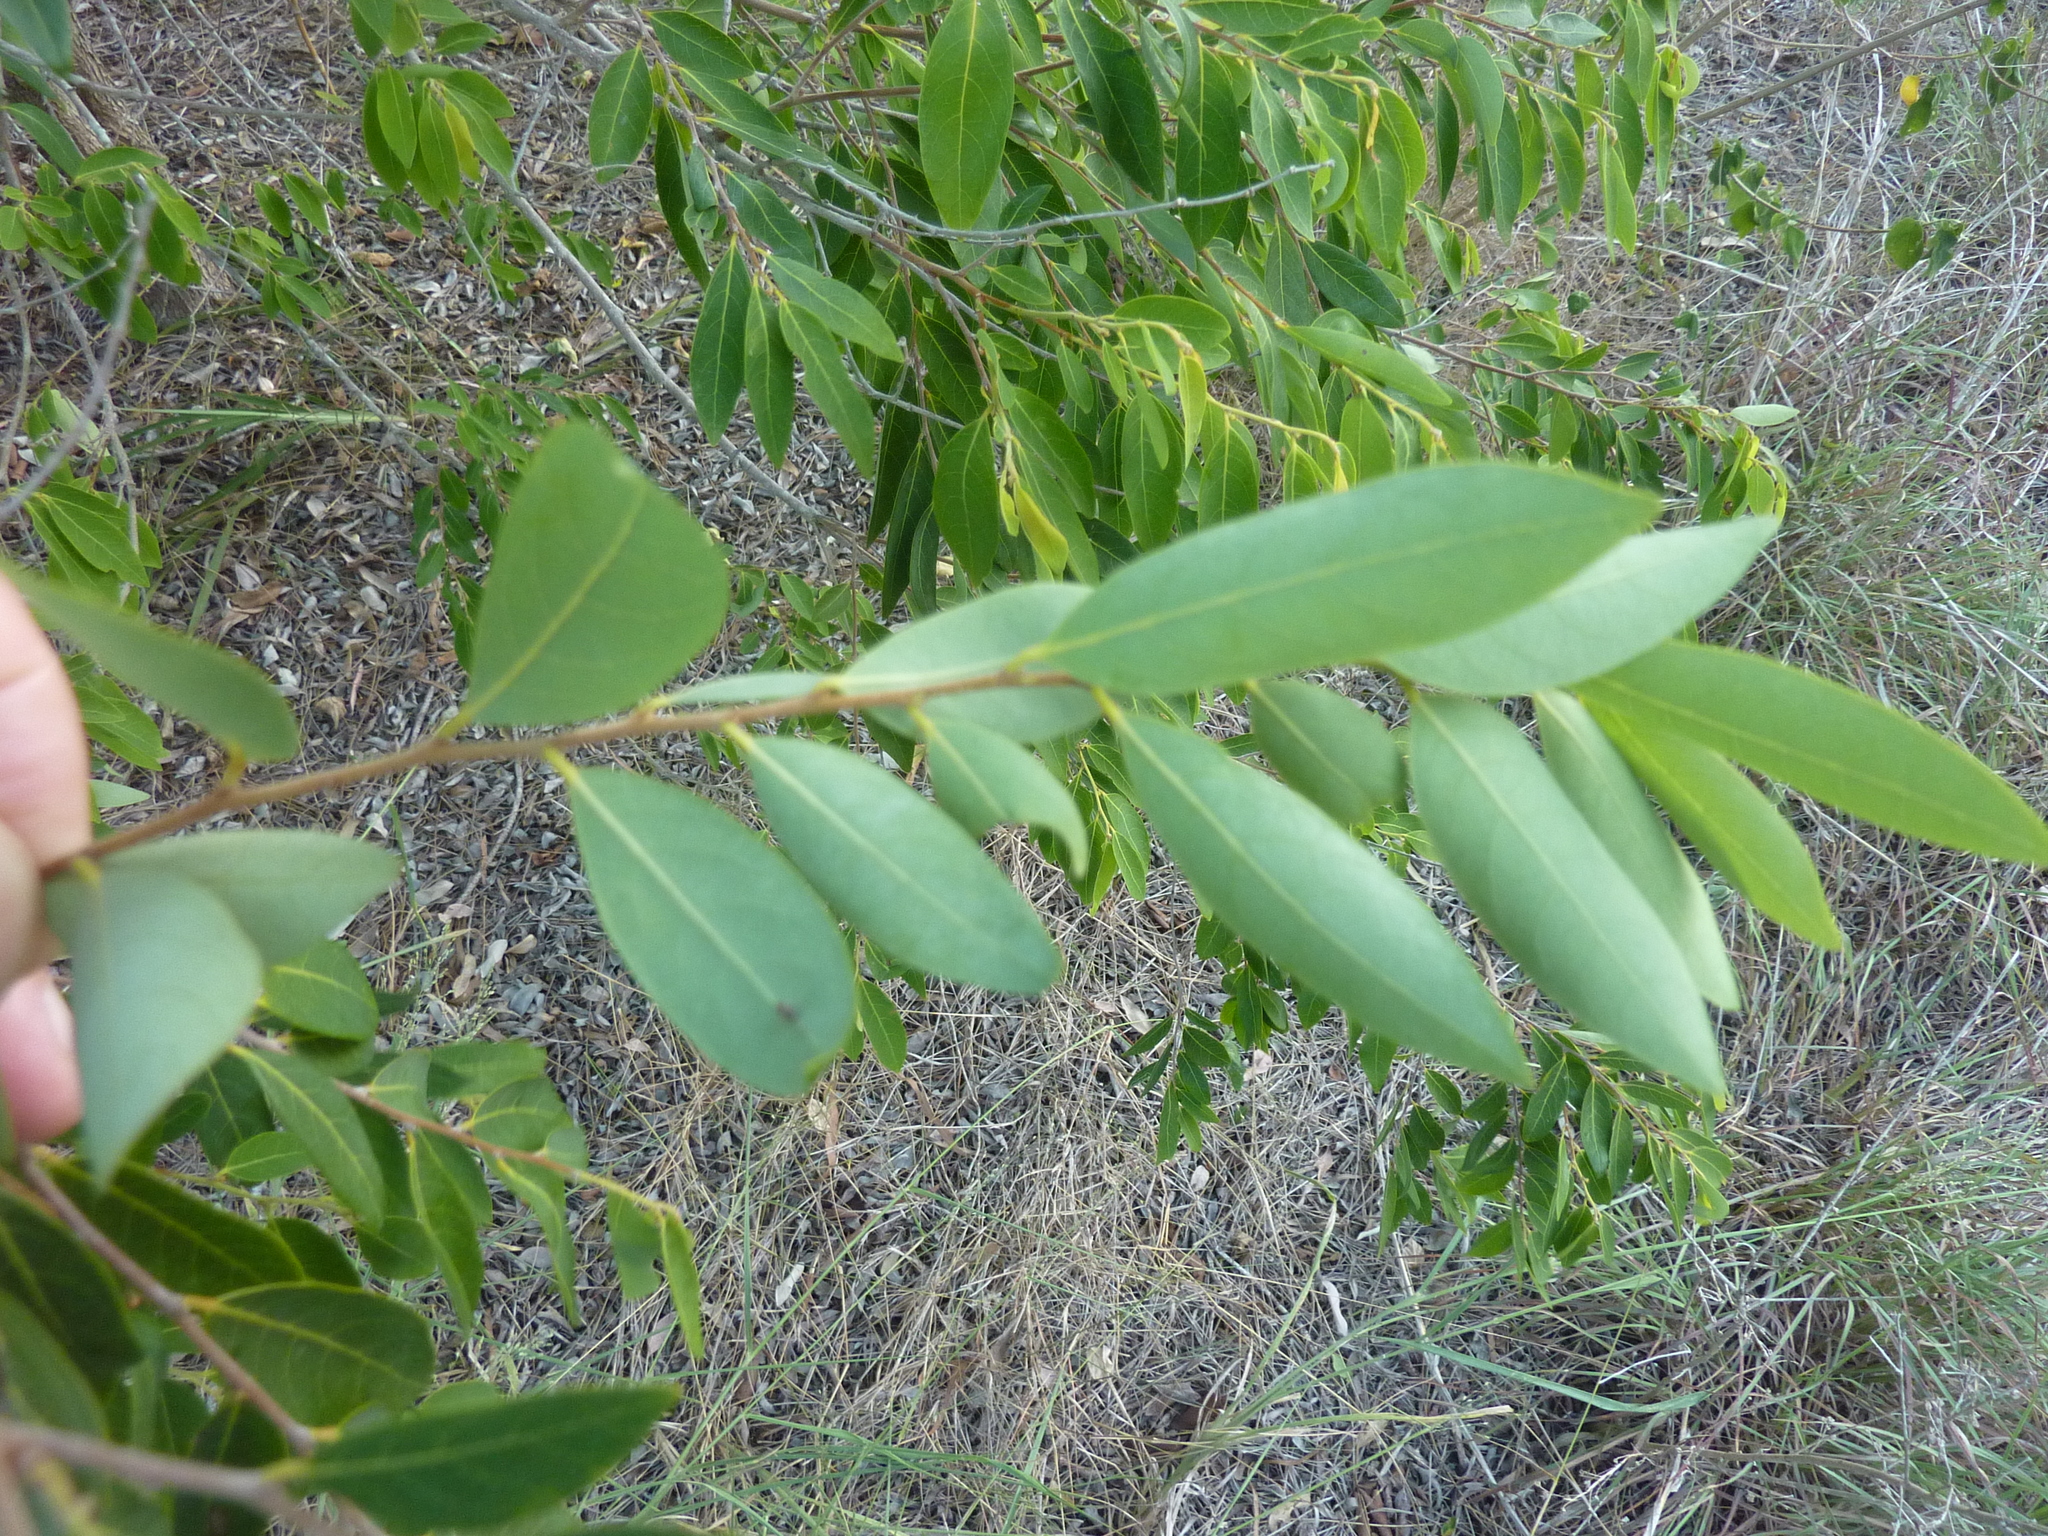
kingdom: Plantae
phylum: Tracheophyta
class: Magnoliopsida
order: Malpighiales
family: Phyllanthaceae
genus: Glochidion
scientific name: Glochidion lobocarpum
